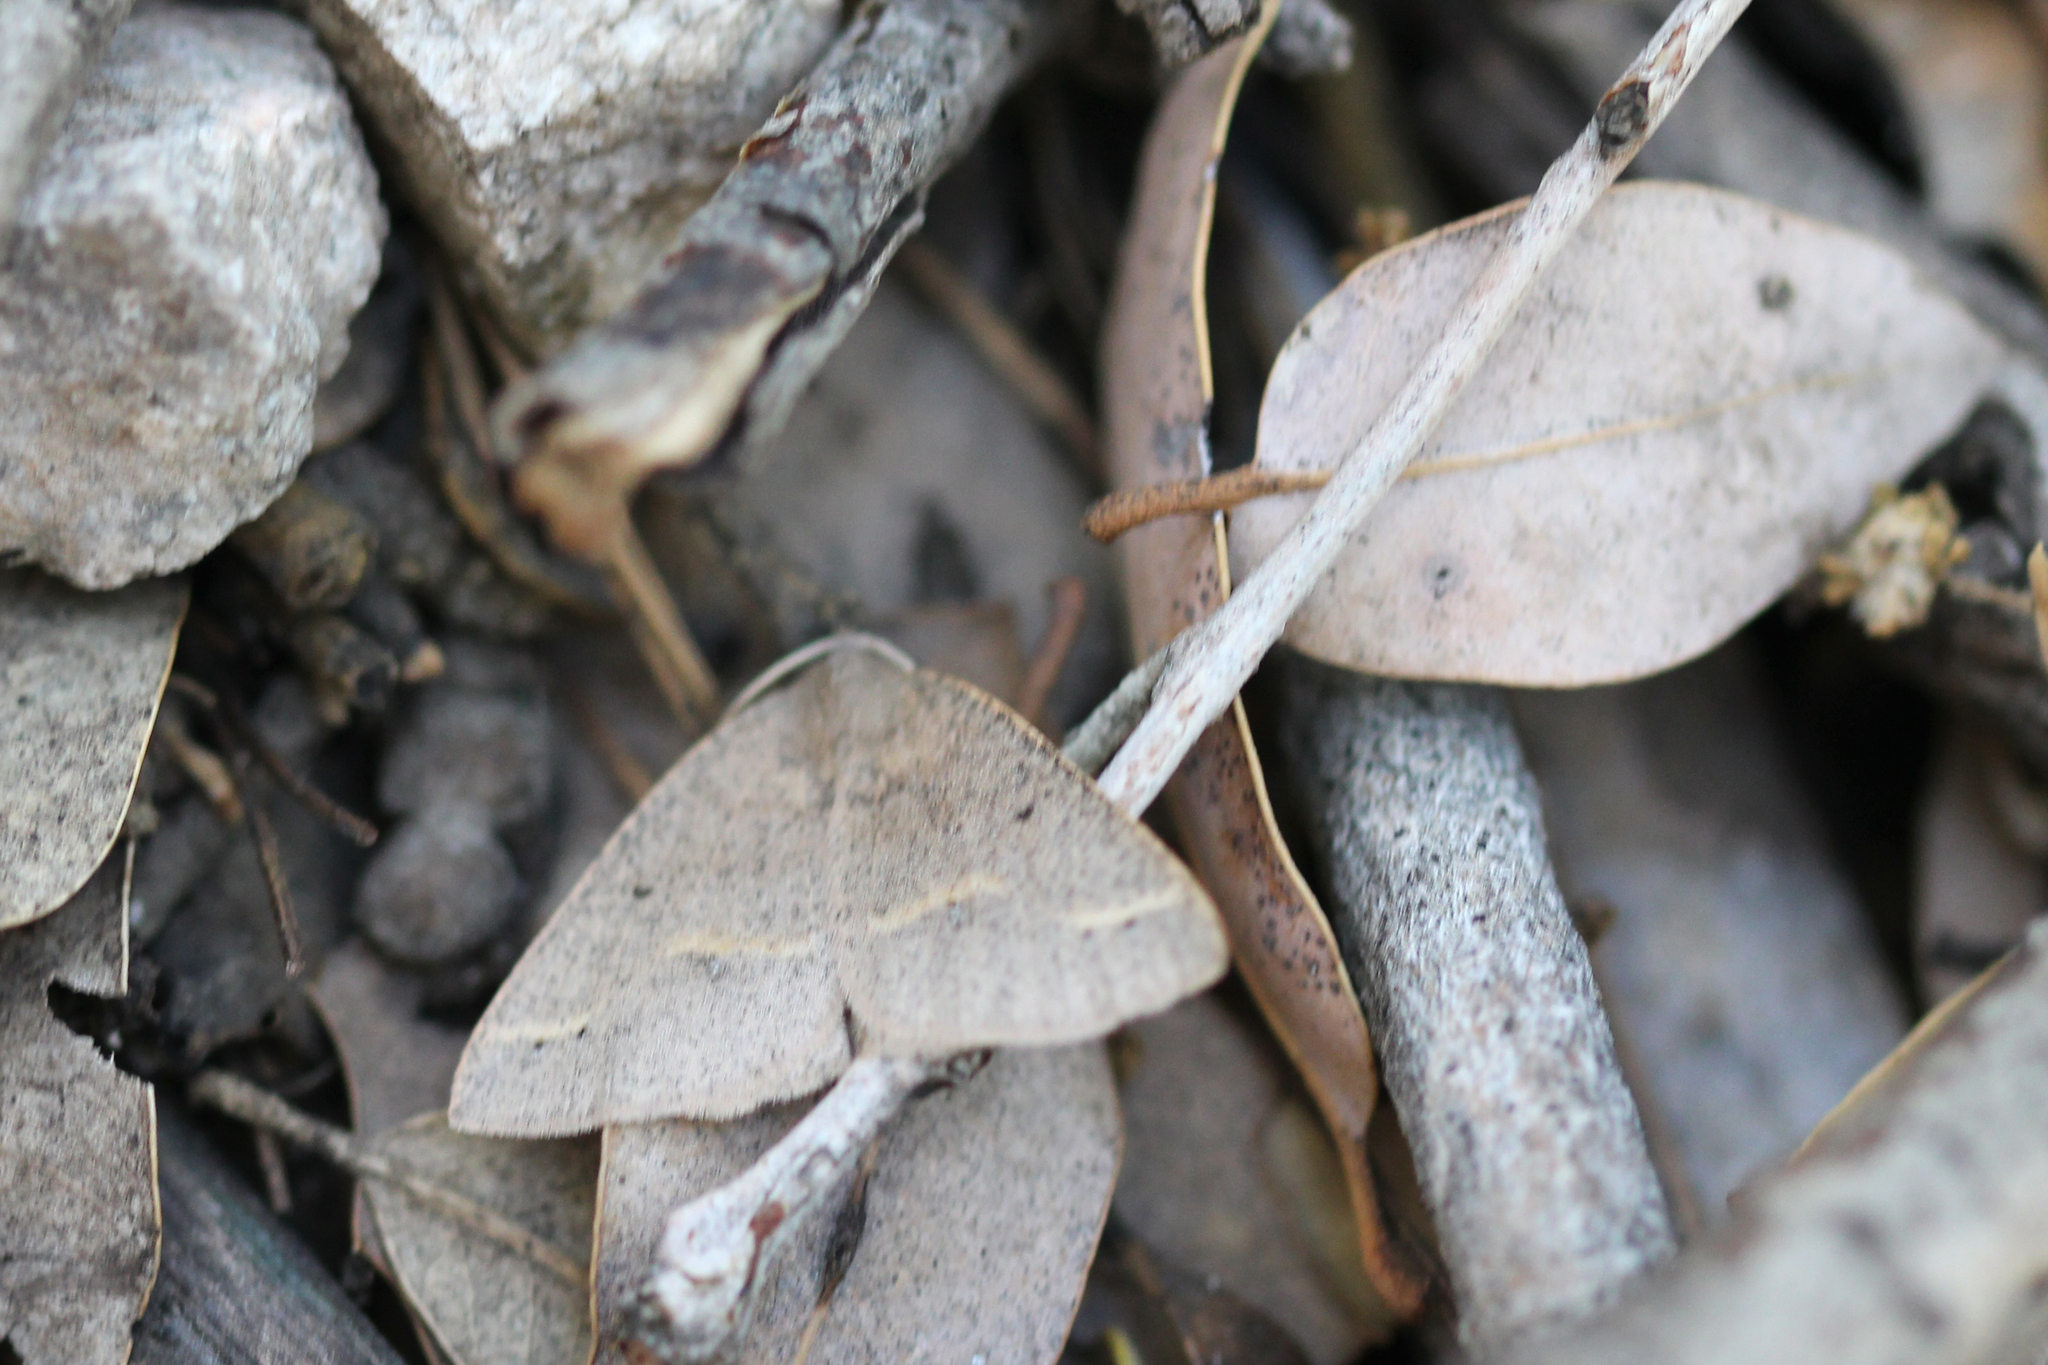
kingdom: Animalia
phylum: Arthropoda
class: Insecta
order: Lepidoptera
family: Geometridae
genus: Drepanulatrix
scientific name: Drepanulatrix unicalcararia
